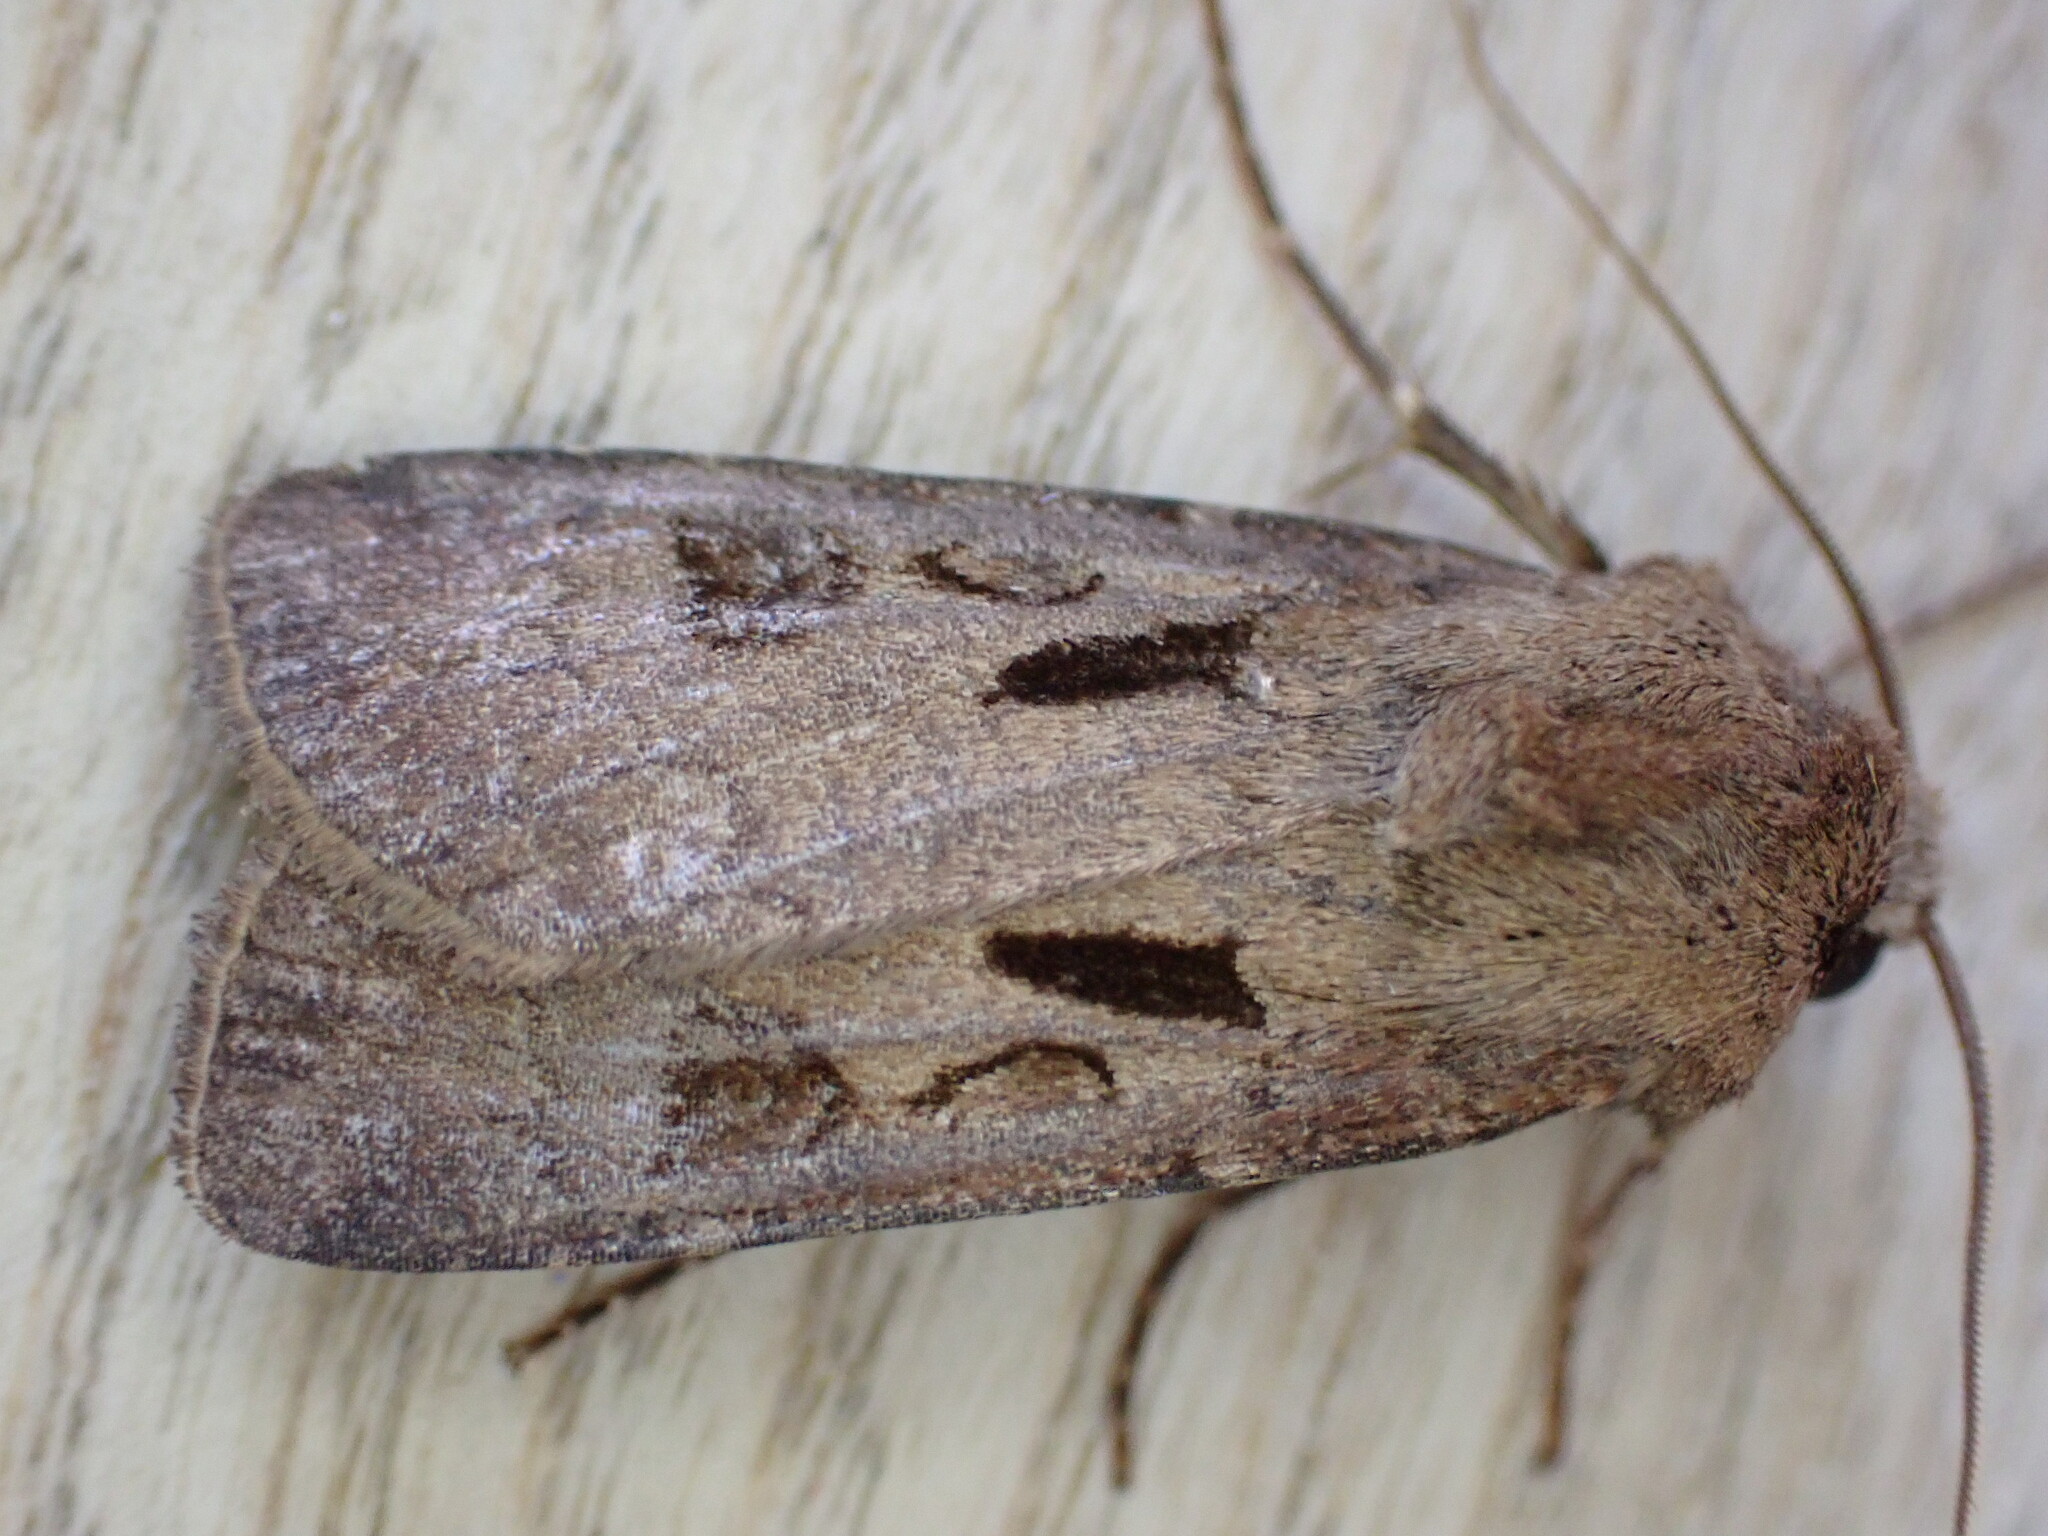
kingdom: Animalia
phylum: Arthropoda
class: Insecta
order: Lepidoptera
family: Noctuidae
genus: Agrotis
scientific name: Agrotis exclamationis
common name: Heart and dart
